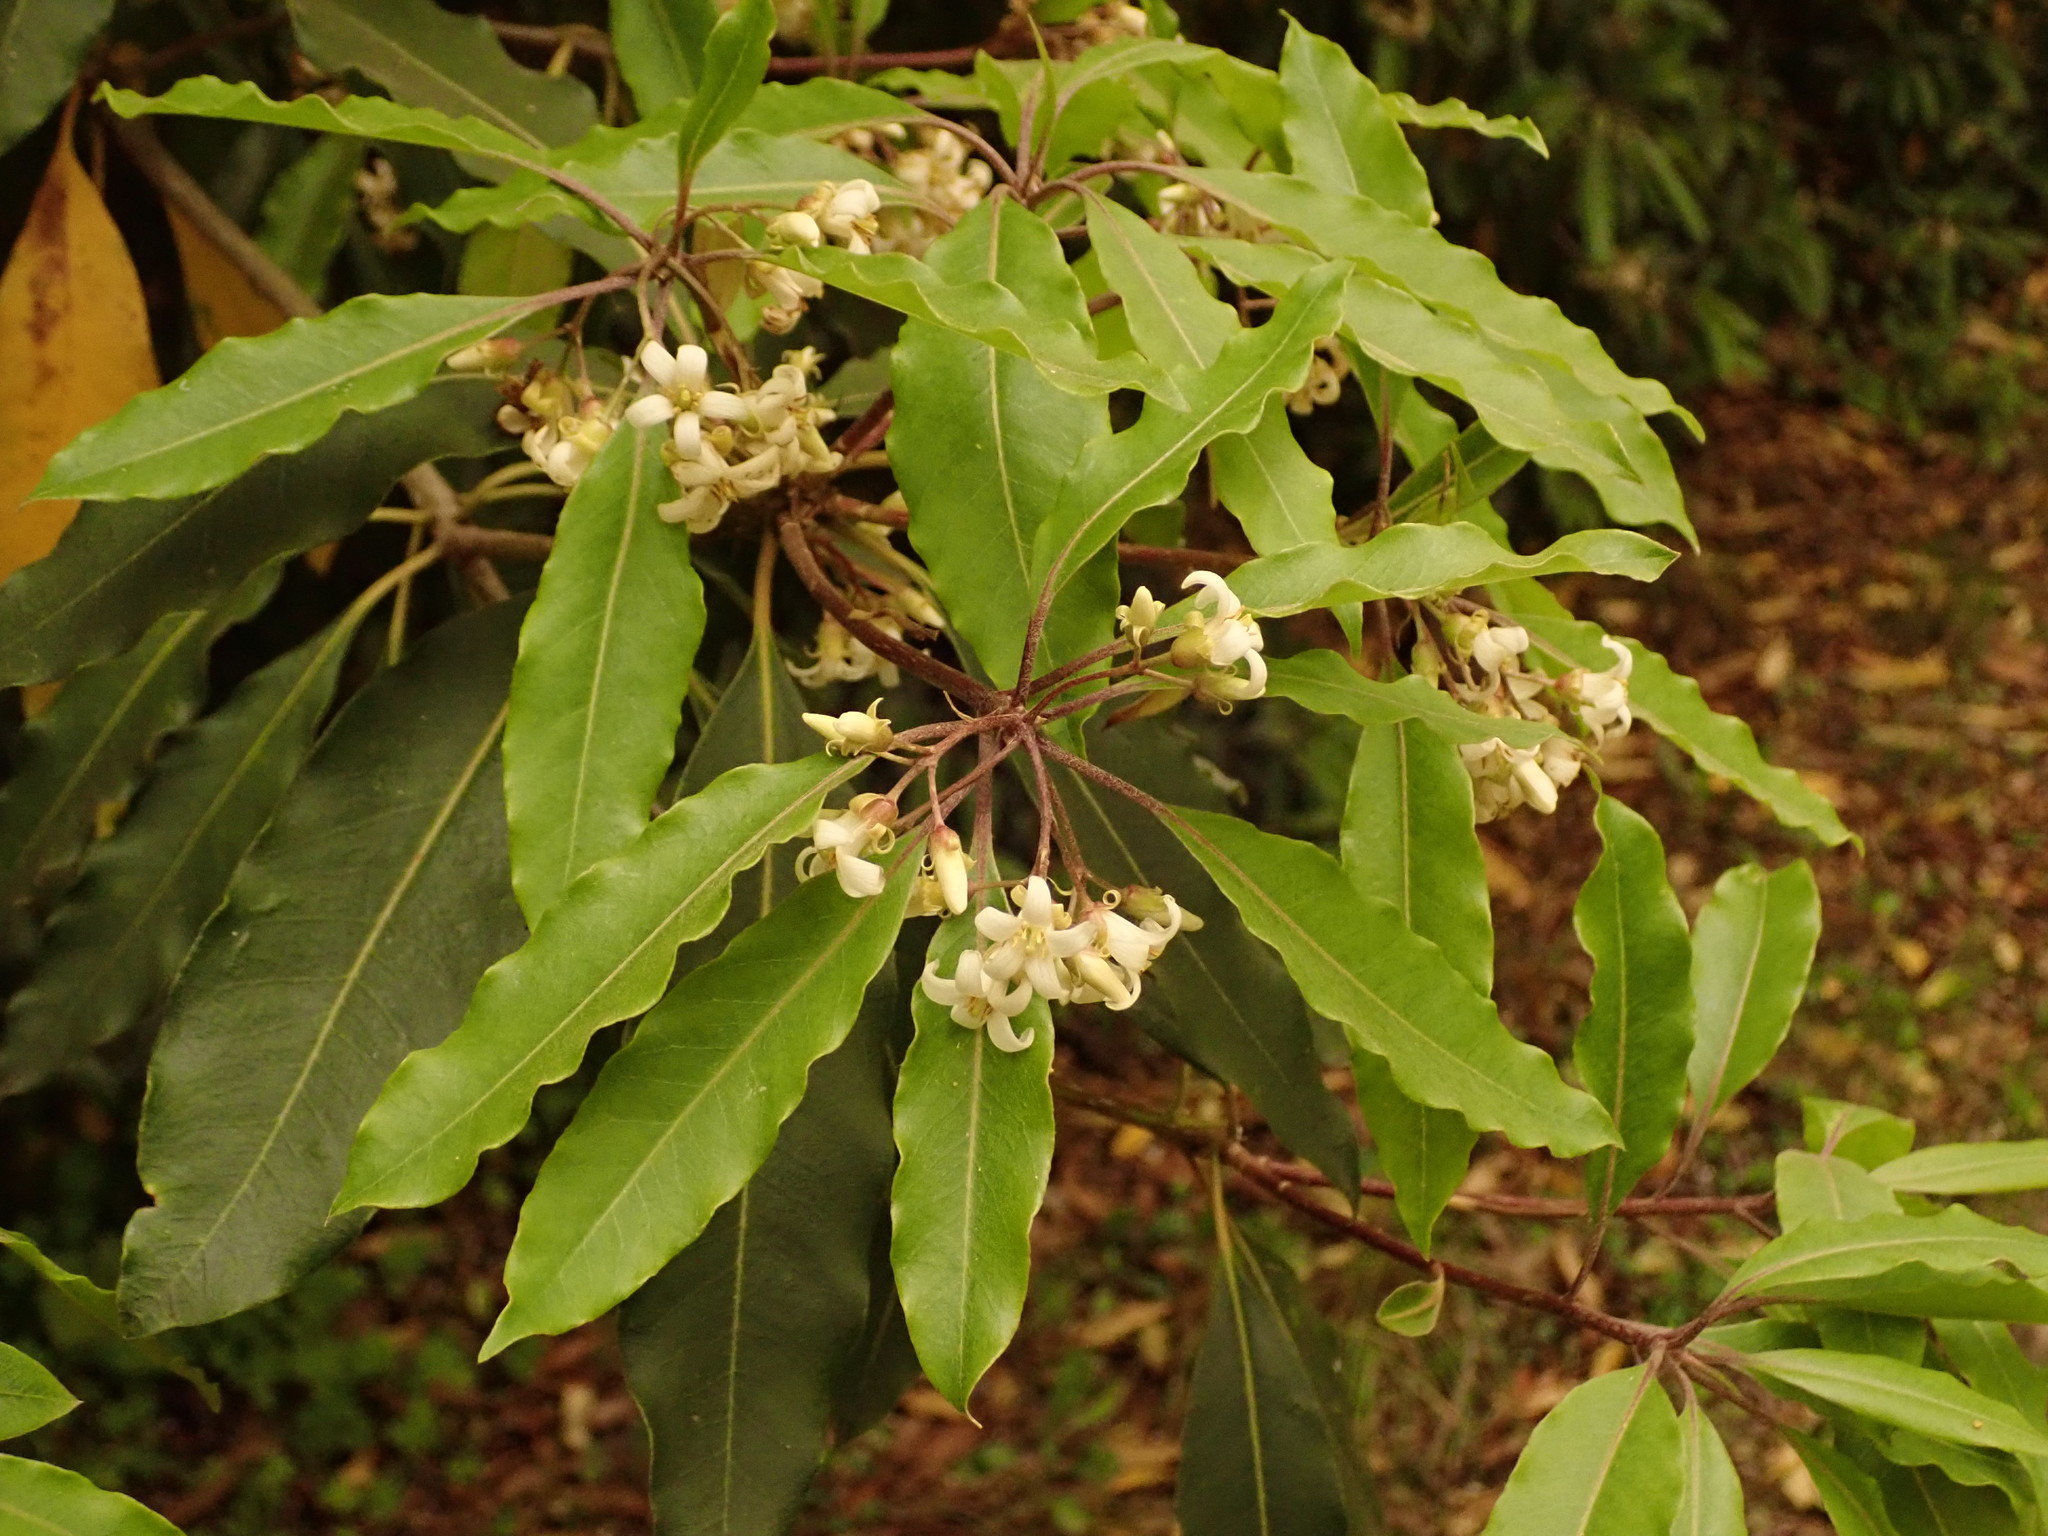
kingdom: Plantae
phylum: Tracheophyta
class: Magnoliopsida
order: Apiales
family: Pittosporaceae
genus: Pittosporum
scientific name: Pittosporum undulatum
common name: Australian cheesewood
